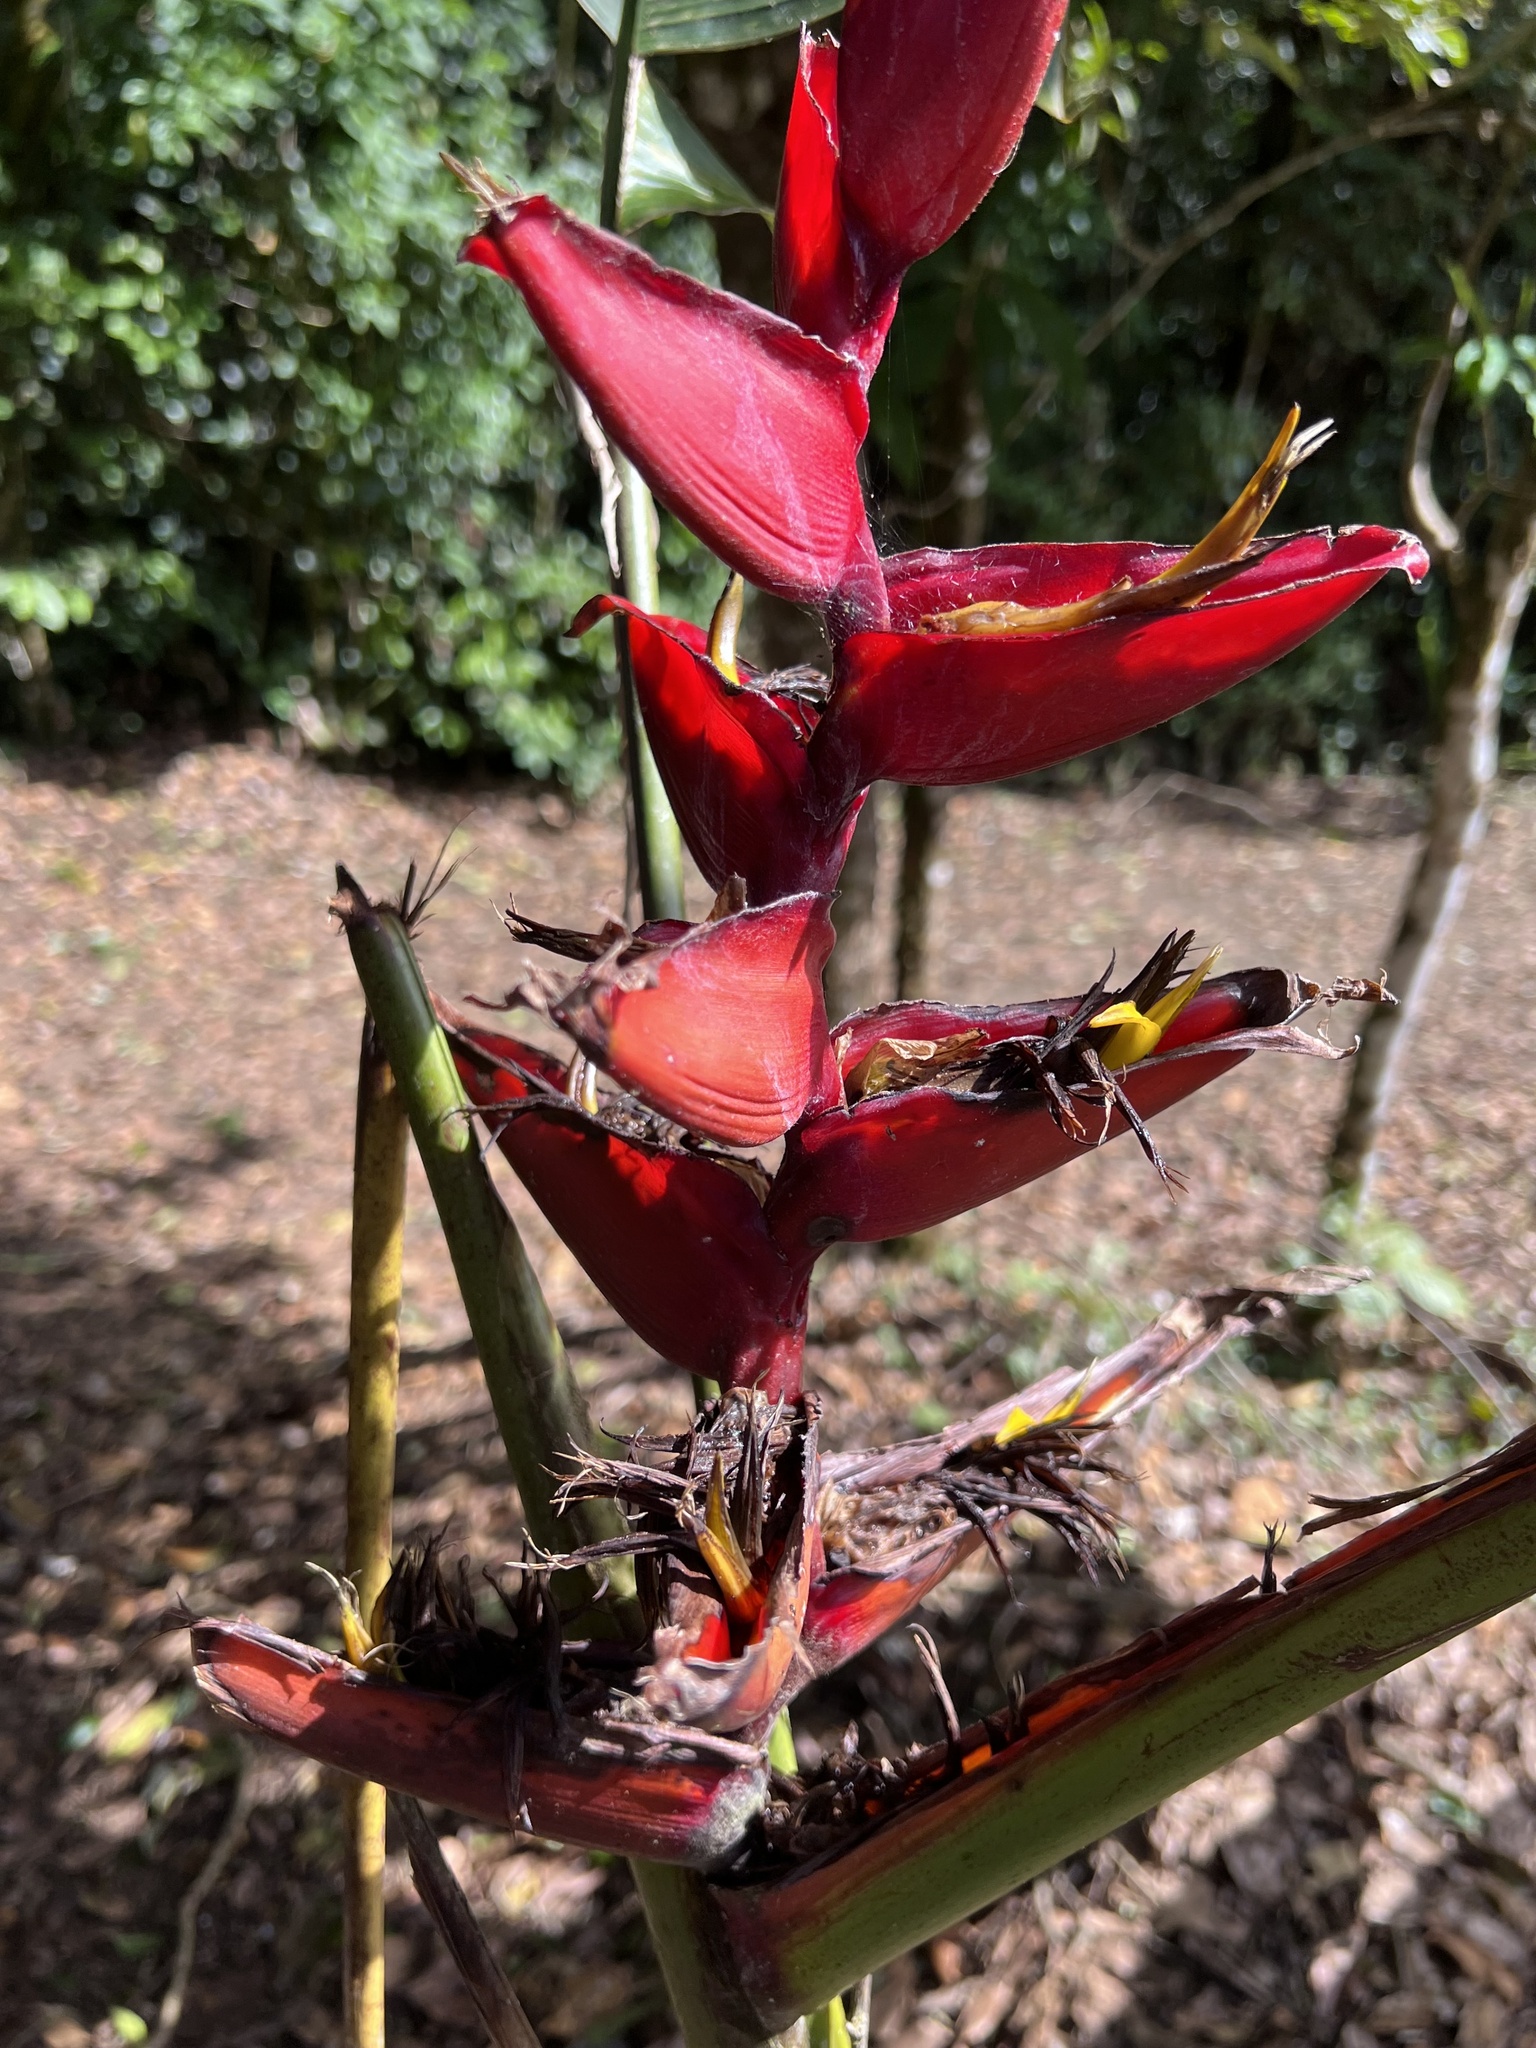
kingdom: Plantae
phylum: Tracheophyta
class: Liliopsida
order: Zingiberales
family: Heliconiaceae
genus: Heliconia
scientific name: Heliconia tortuosa
